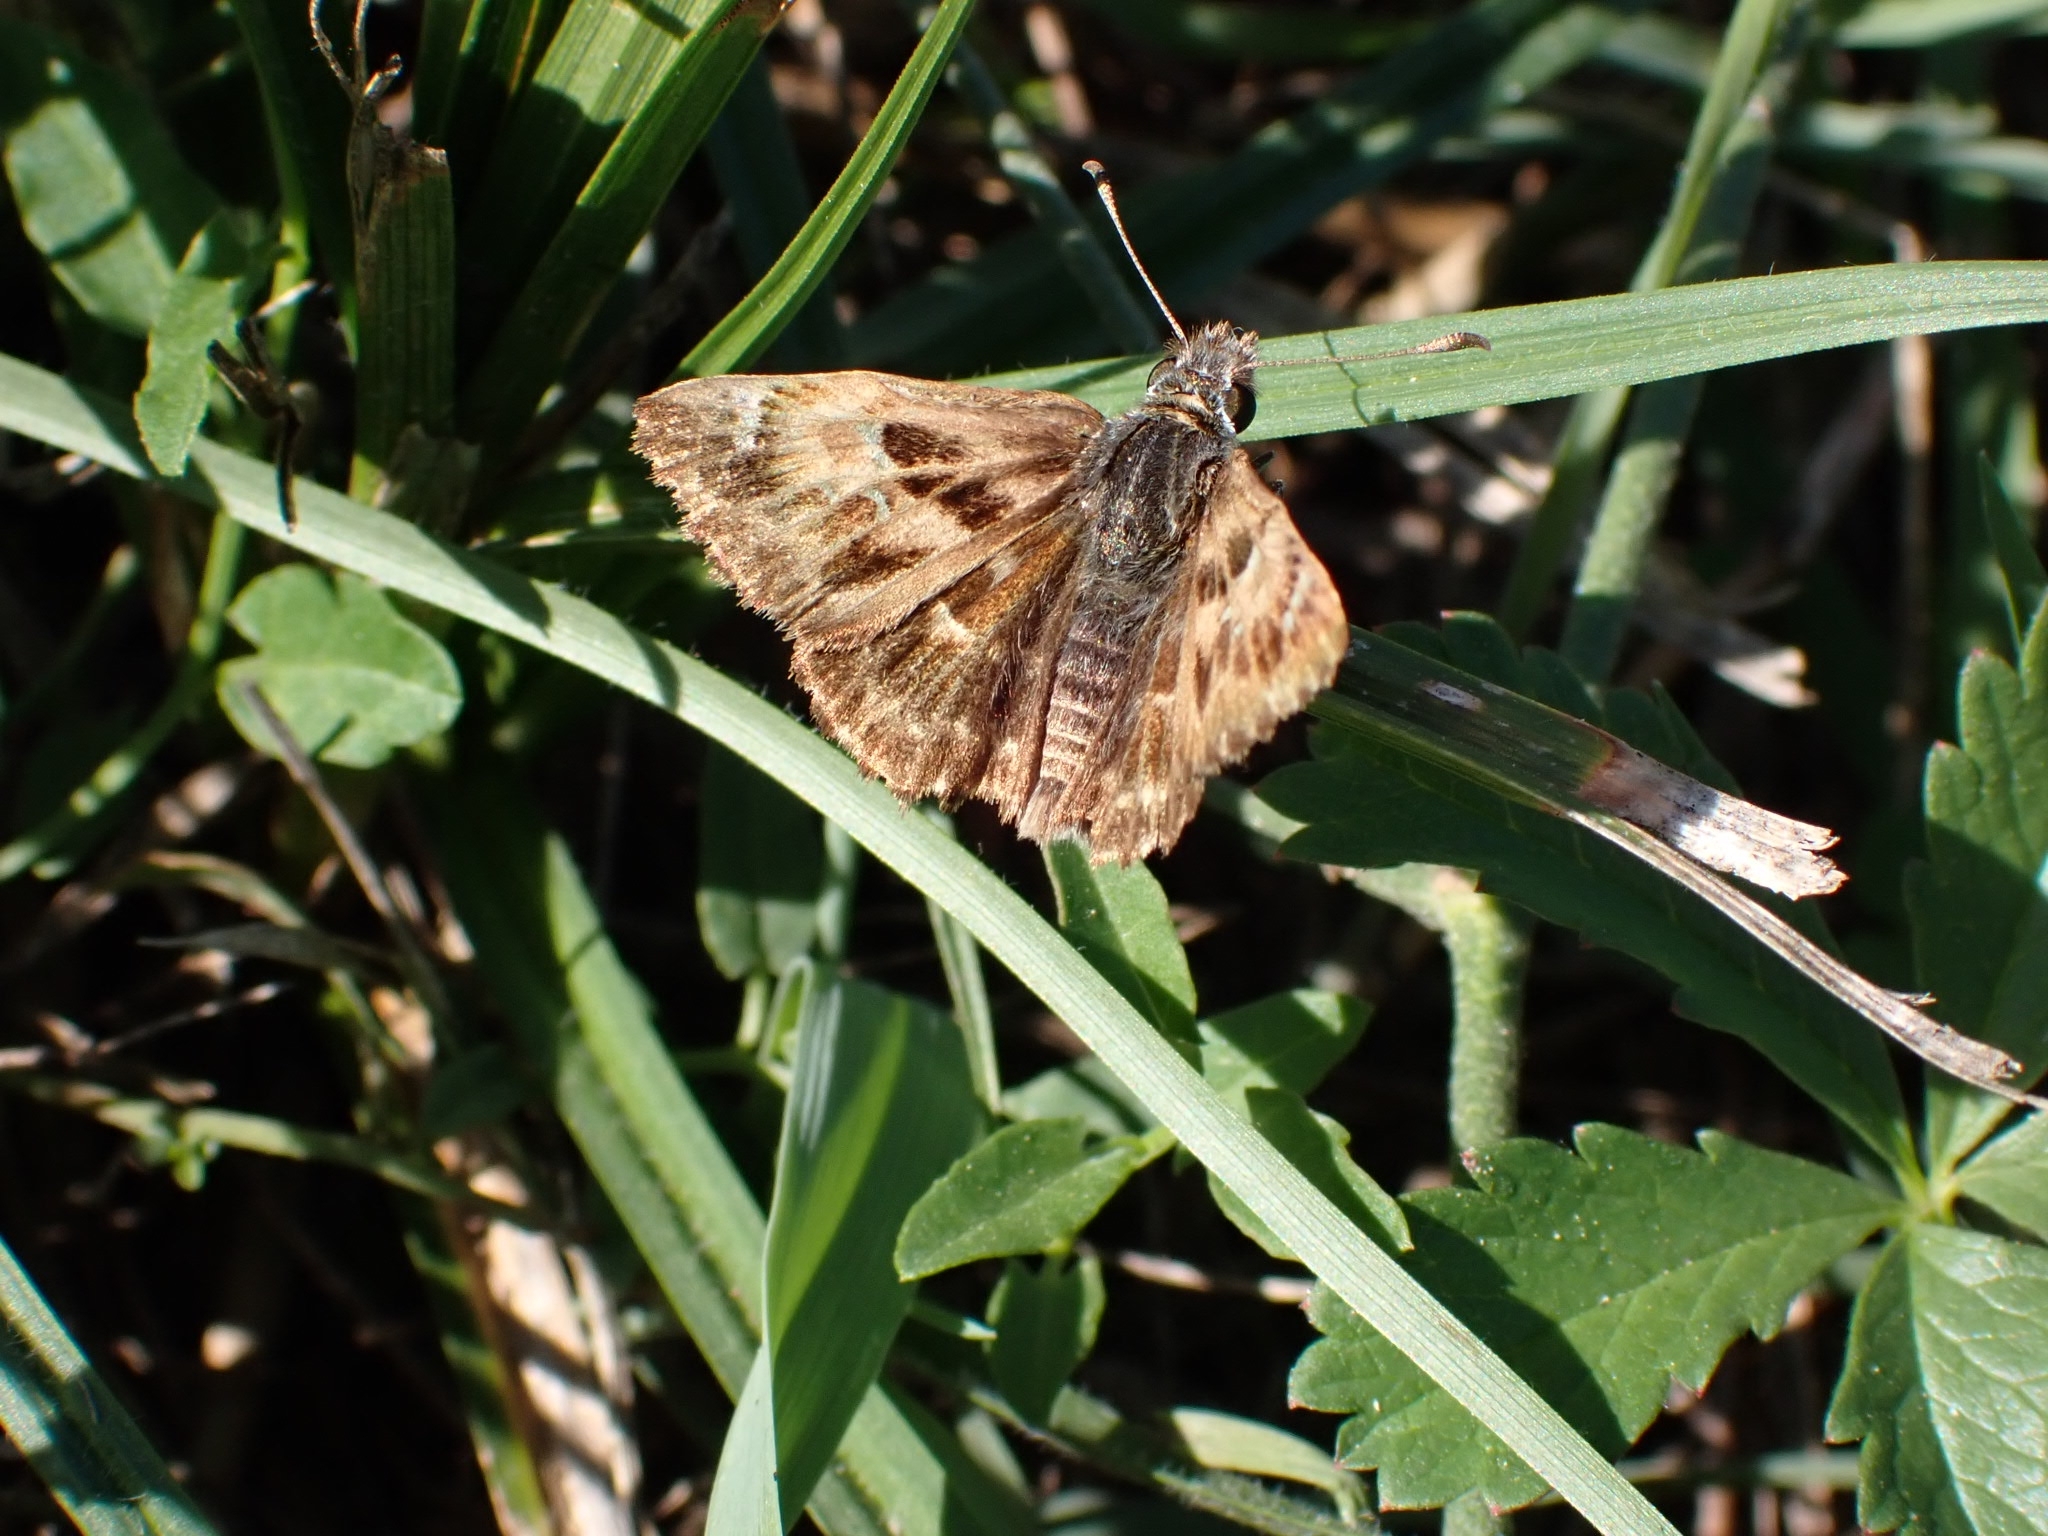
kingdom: Animalia
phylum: Arthropoda
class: Insecta
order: Lepidoptera
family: Hesperiidae
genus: Carcharodus
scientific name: Carcharodus alceae
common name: Mallow skipper
